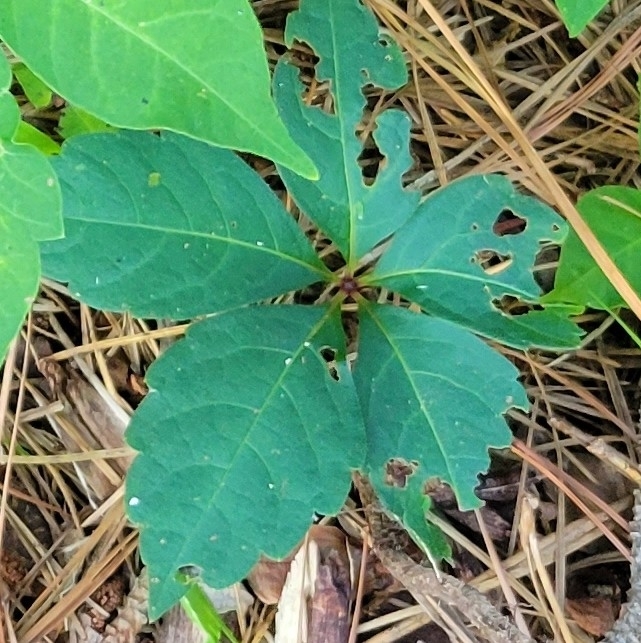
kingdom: Plantae
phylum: Tracheophyta
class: Magnoliopsida
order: Vitales
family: Vitaceae
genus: Parthenocissus
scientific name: Parthenocissus quinquefolia
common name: Virginia-creeper
